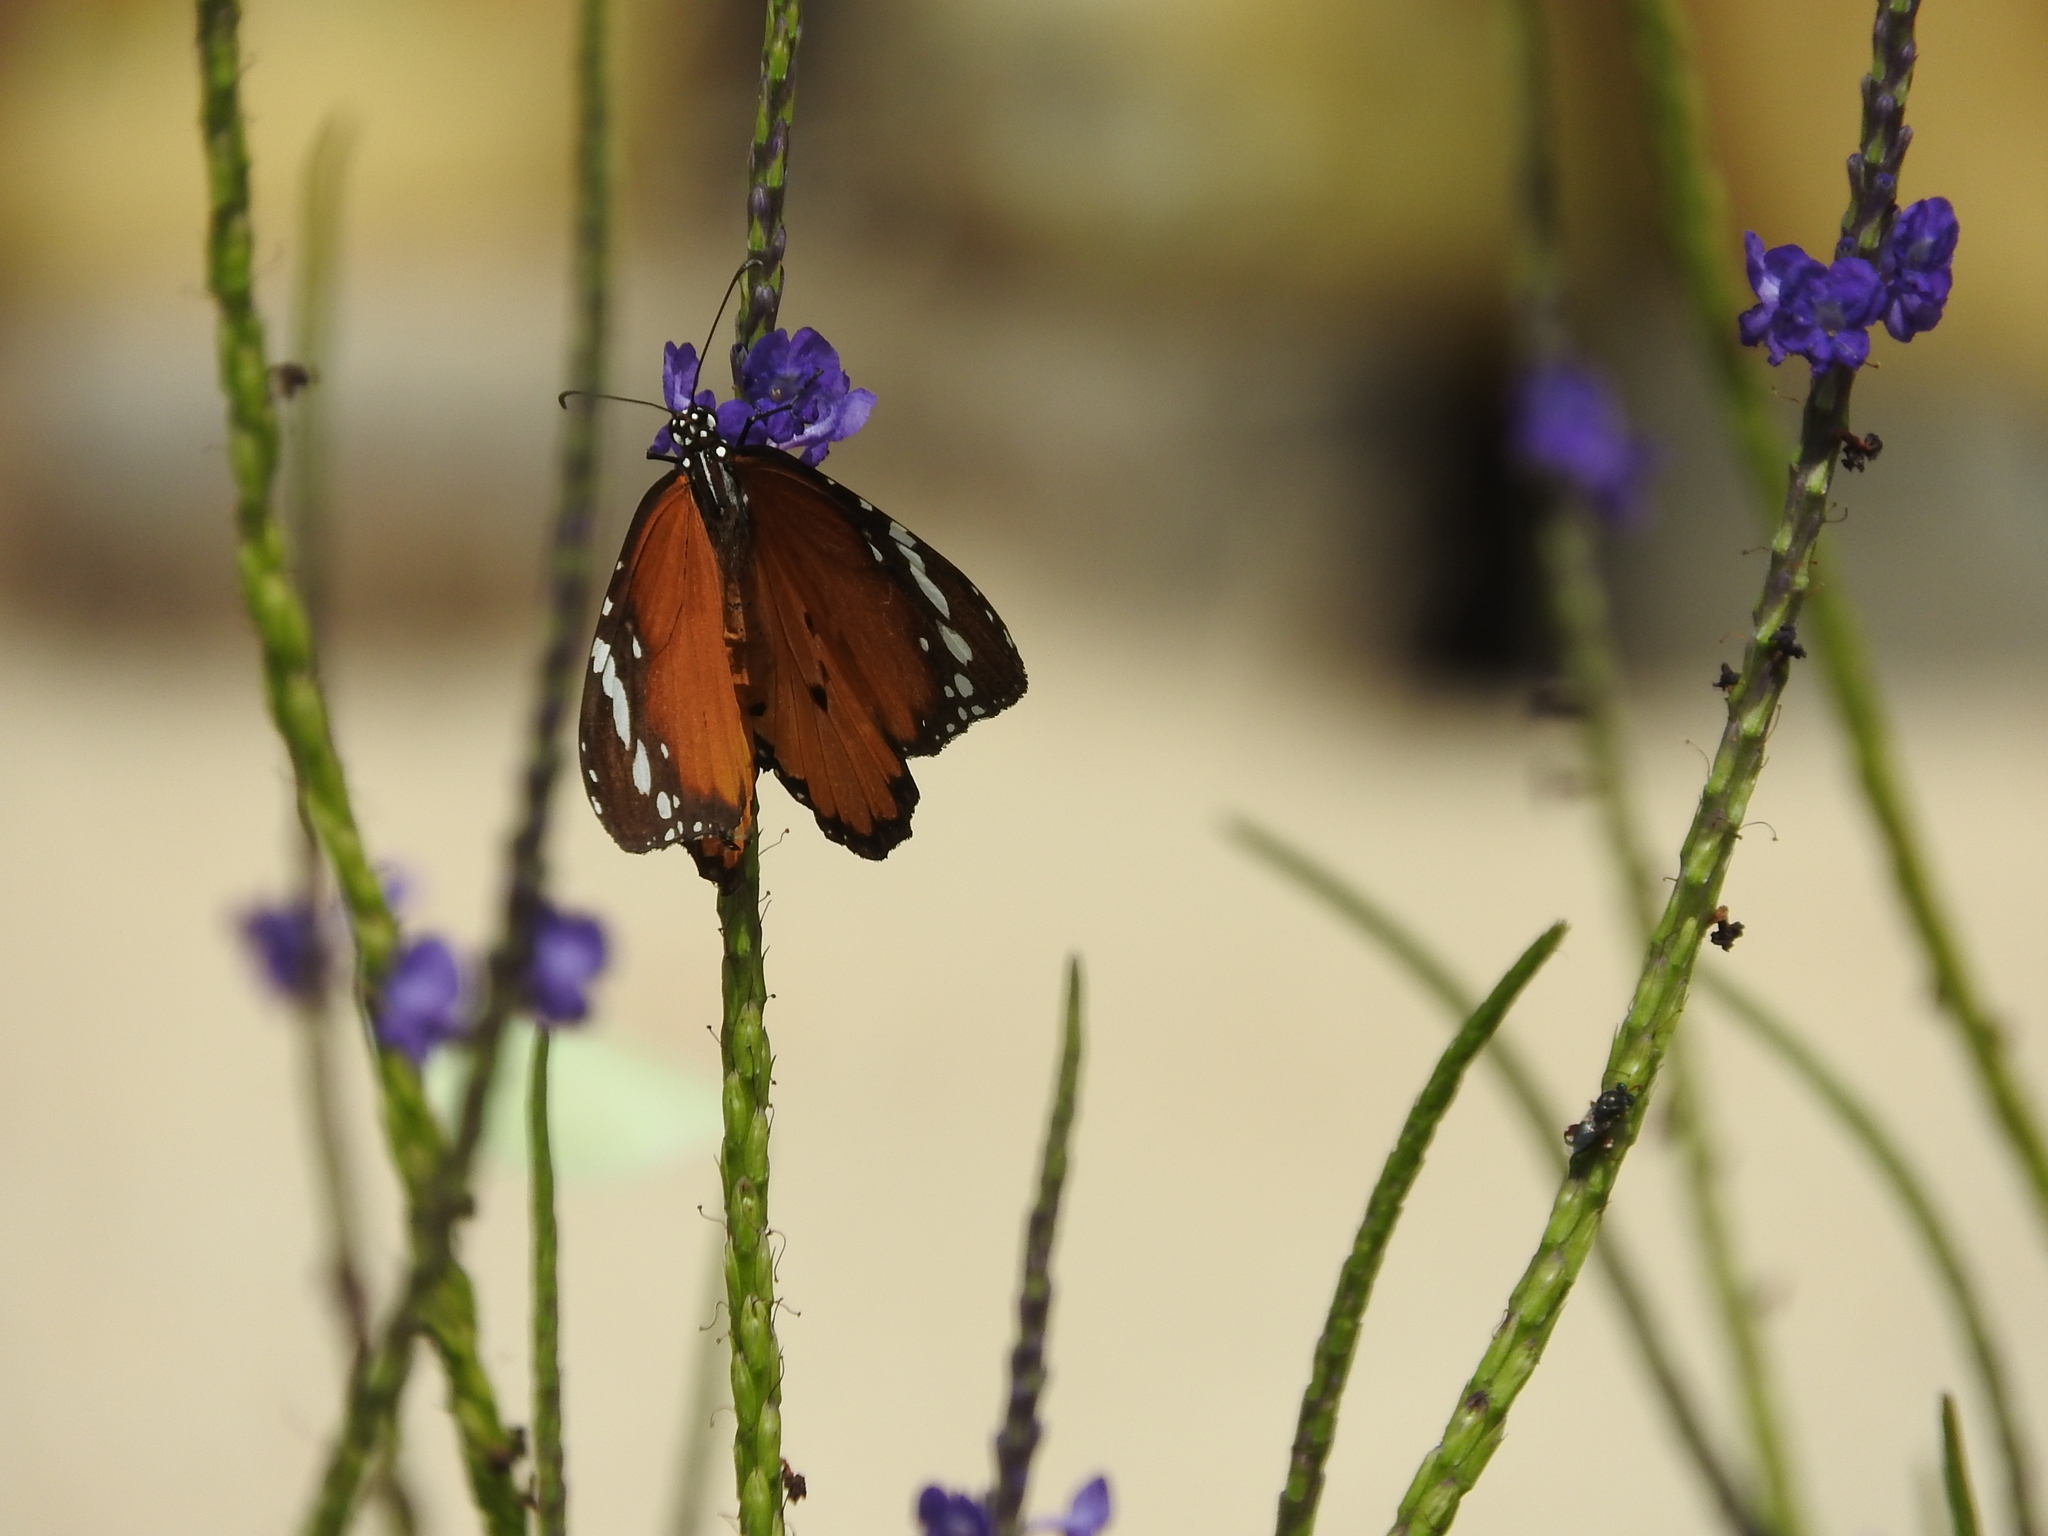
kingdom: Animalia
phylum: Arthropoda
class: Insecta
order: Lepidoptera
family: Nymphalidae
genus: Danaus
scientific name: Danaus chrysippus
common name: Plain tiger
